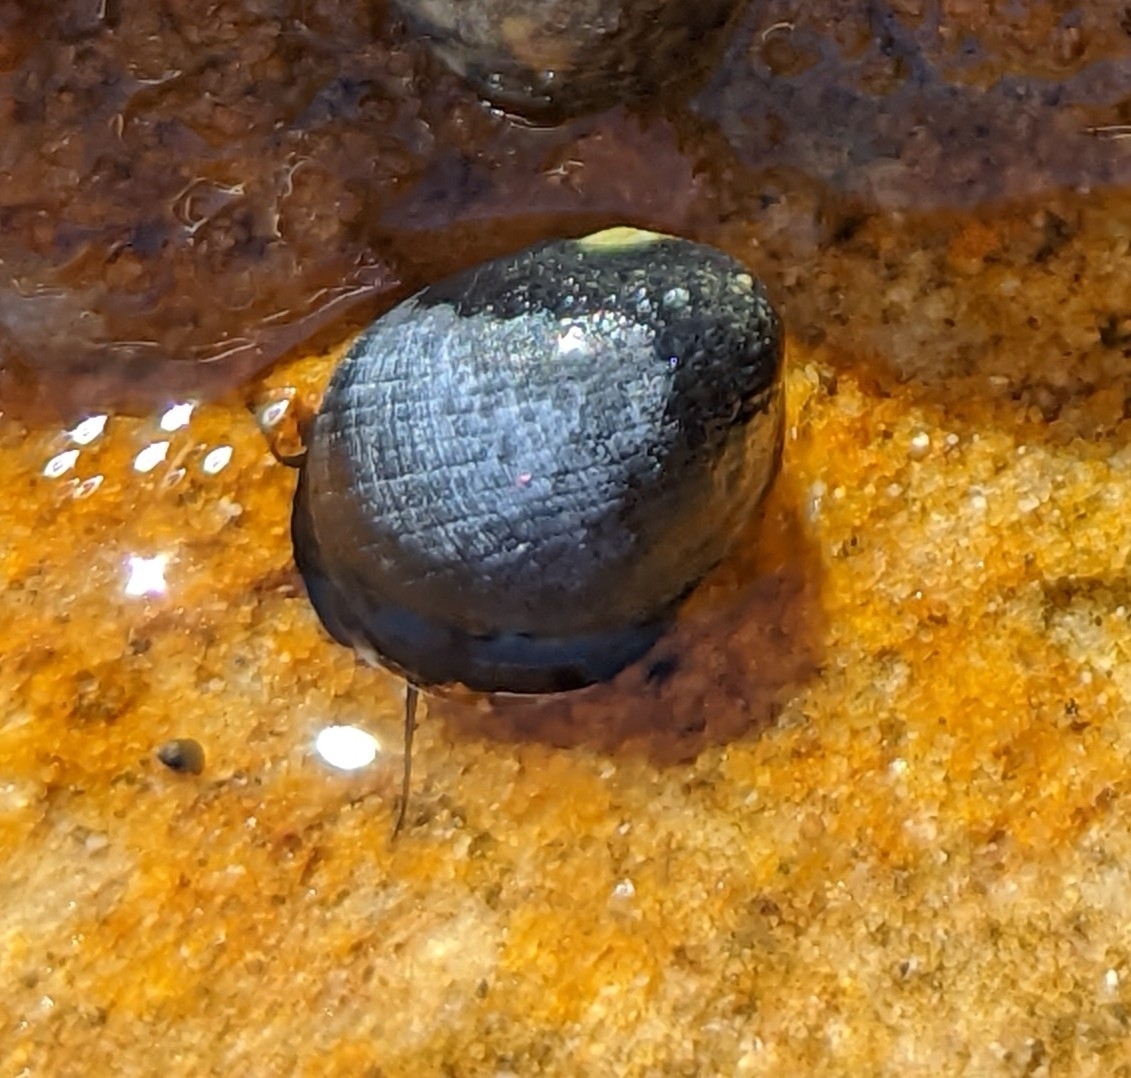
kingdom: Animalia
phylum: Mollusca
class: Gastropoda
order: Cycloneritida
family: Neritidae
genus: Nerita
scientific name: Nerita melanotragus
